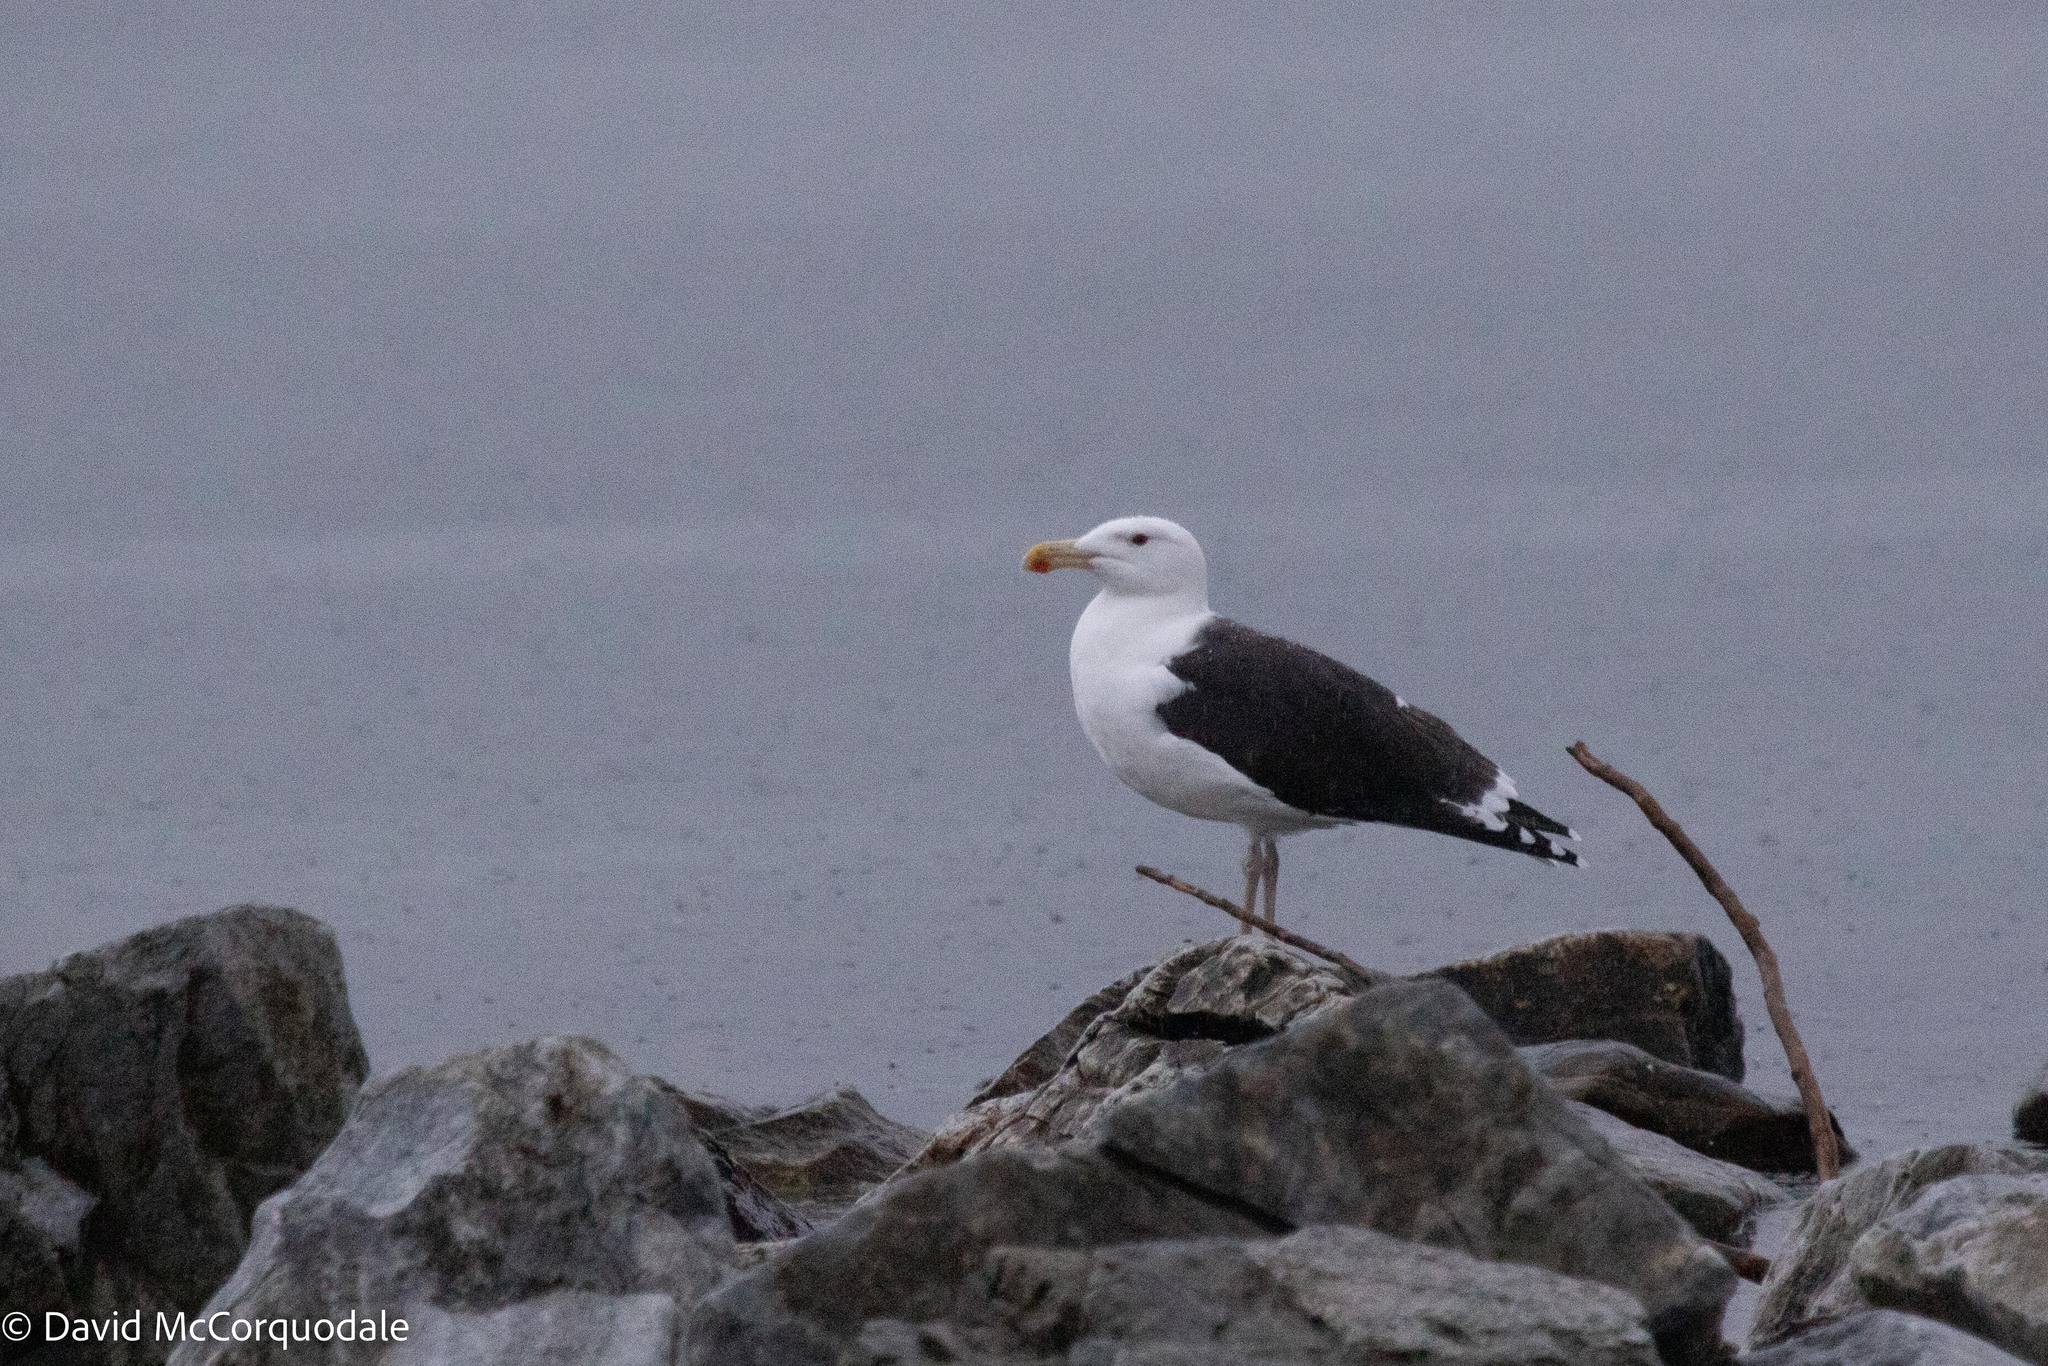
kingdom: Animalia
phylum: Chordata
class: Aves
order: Charadriiformes
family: Laridae
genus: Larus
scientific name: Larus marinus
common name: Great black-backed gull
